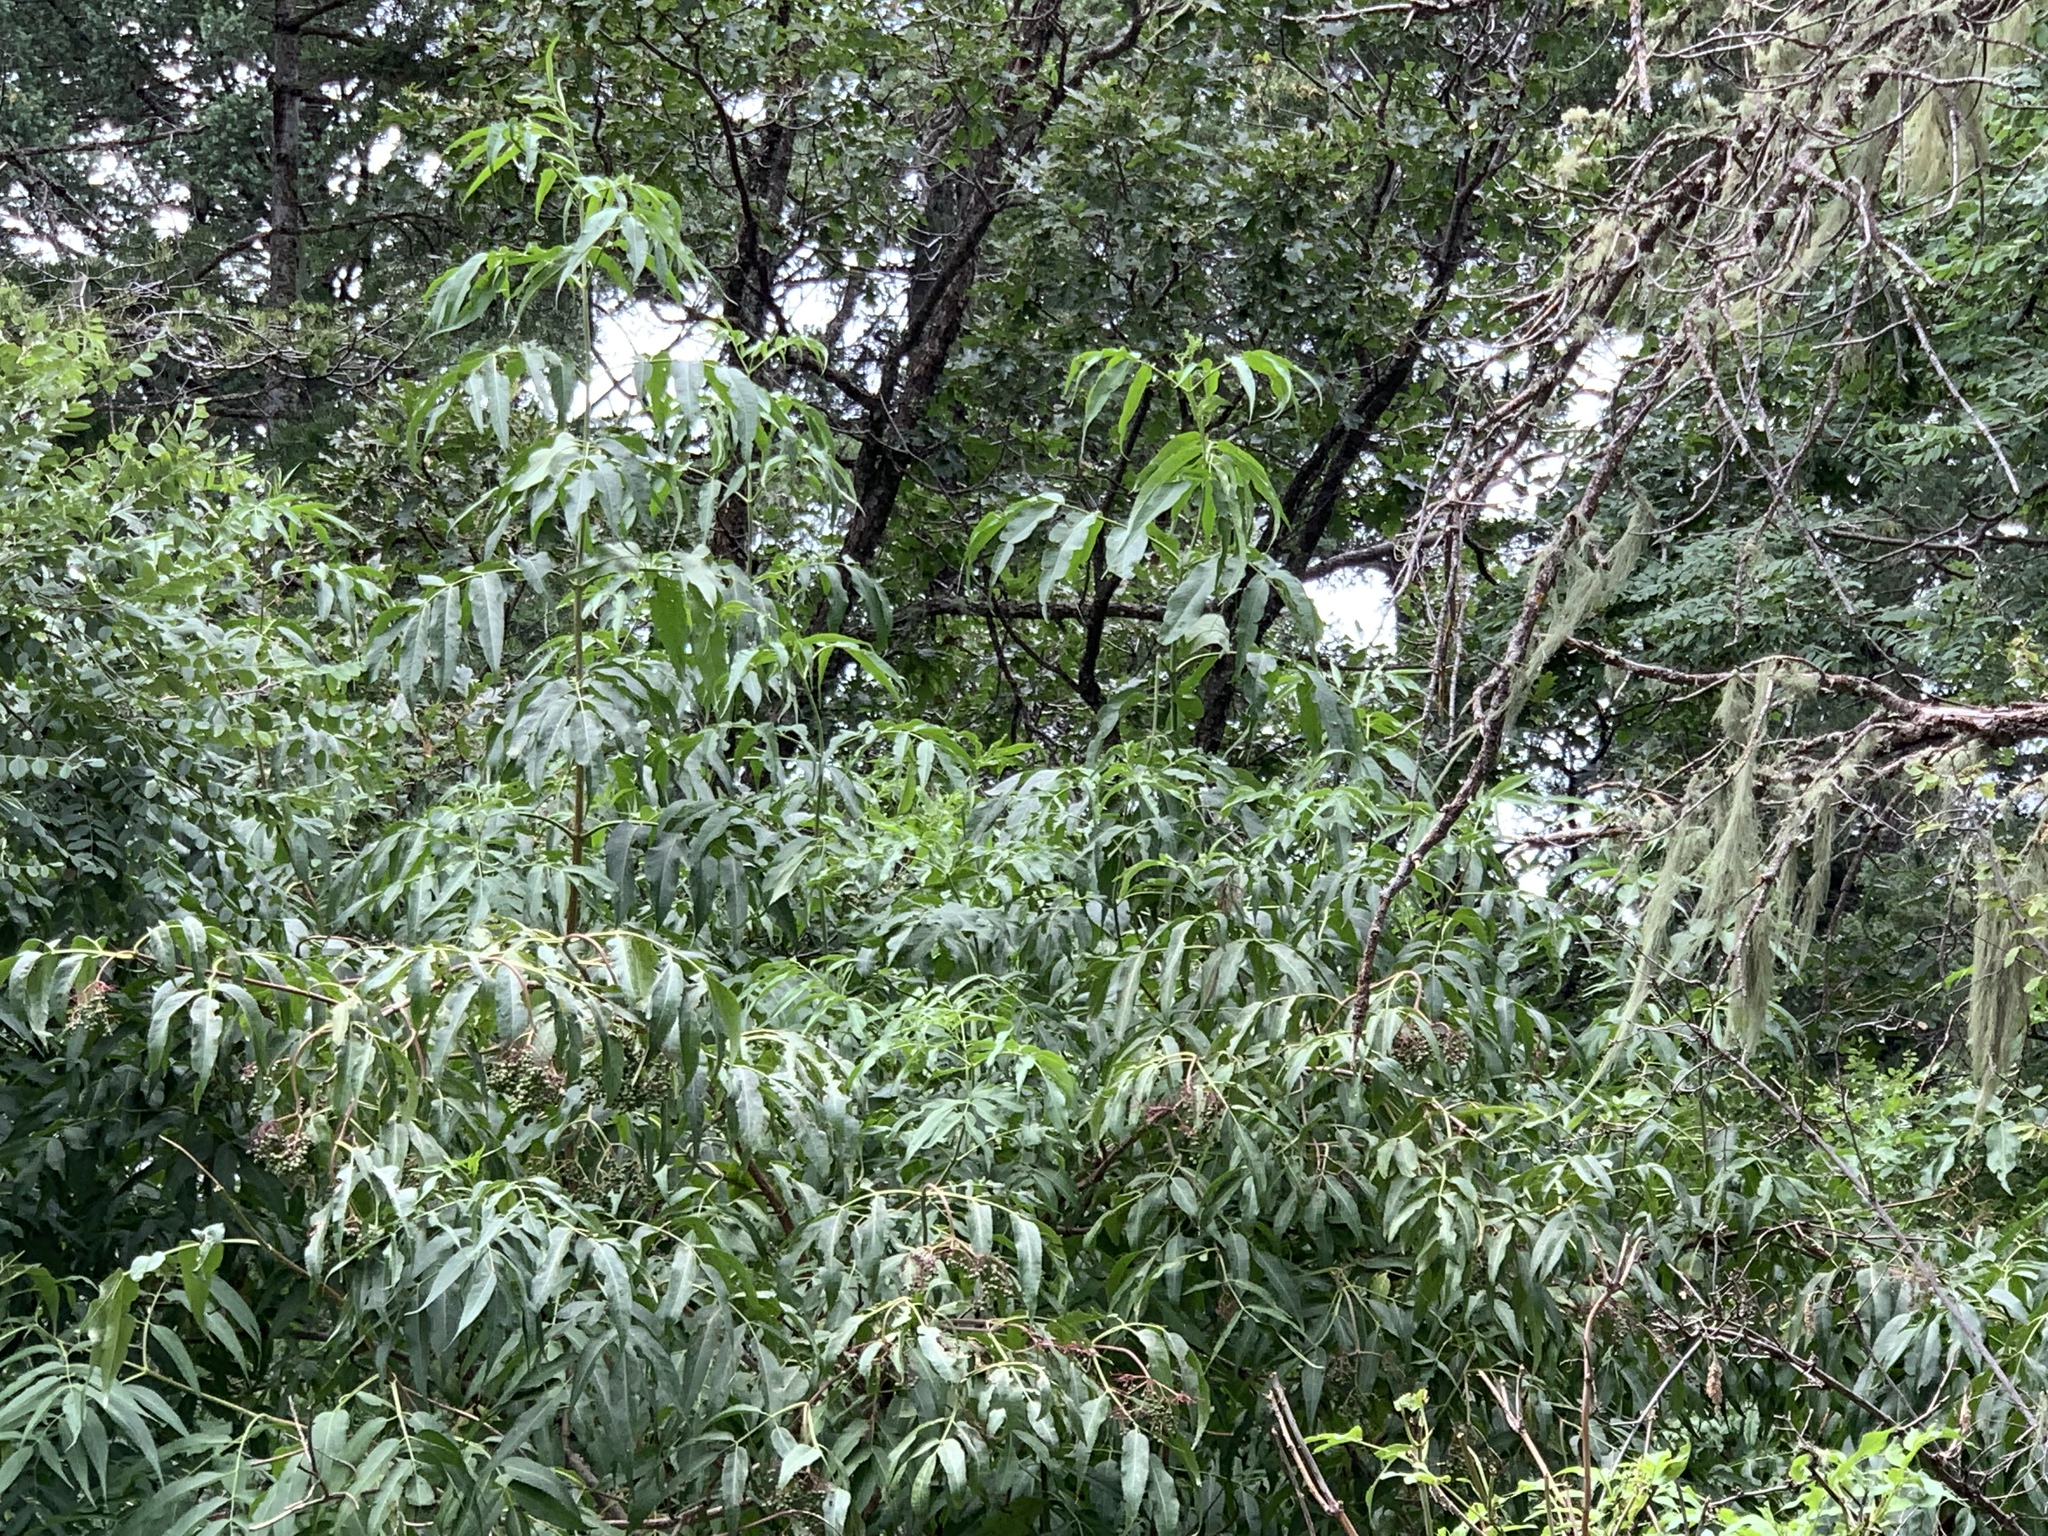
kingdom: Plantae
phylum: Tracheophyta
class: Magnoliopsida
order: Dipsacales
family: Viburnaceae
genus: Sambucus
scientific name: Sambucus cerulea
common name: Blue elder
